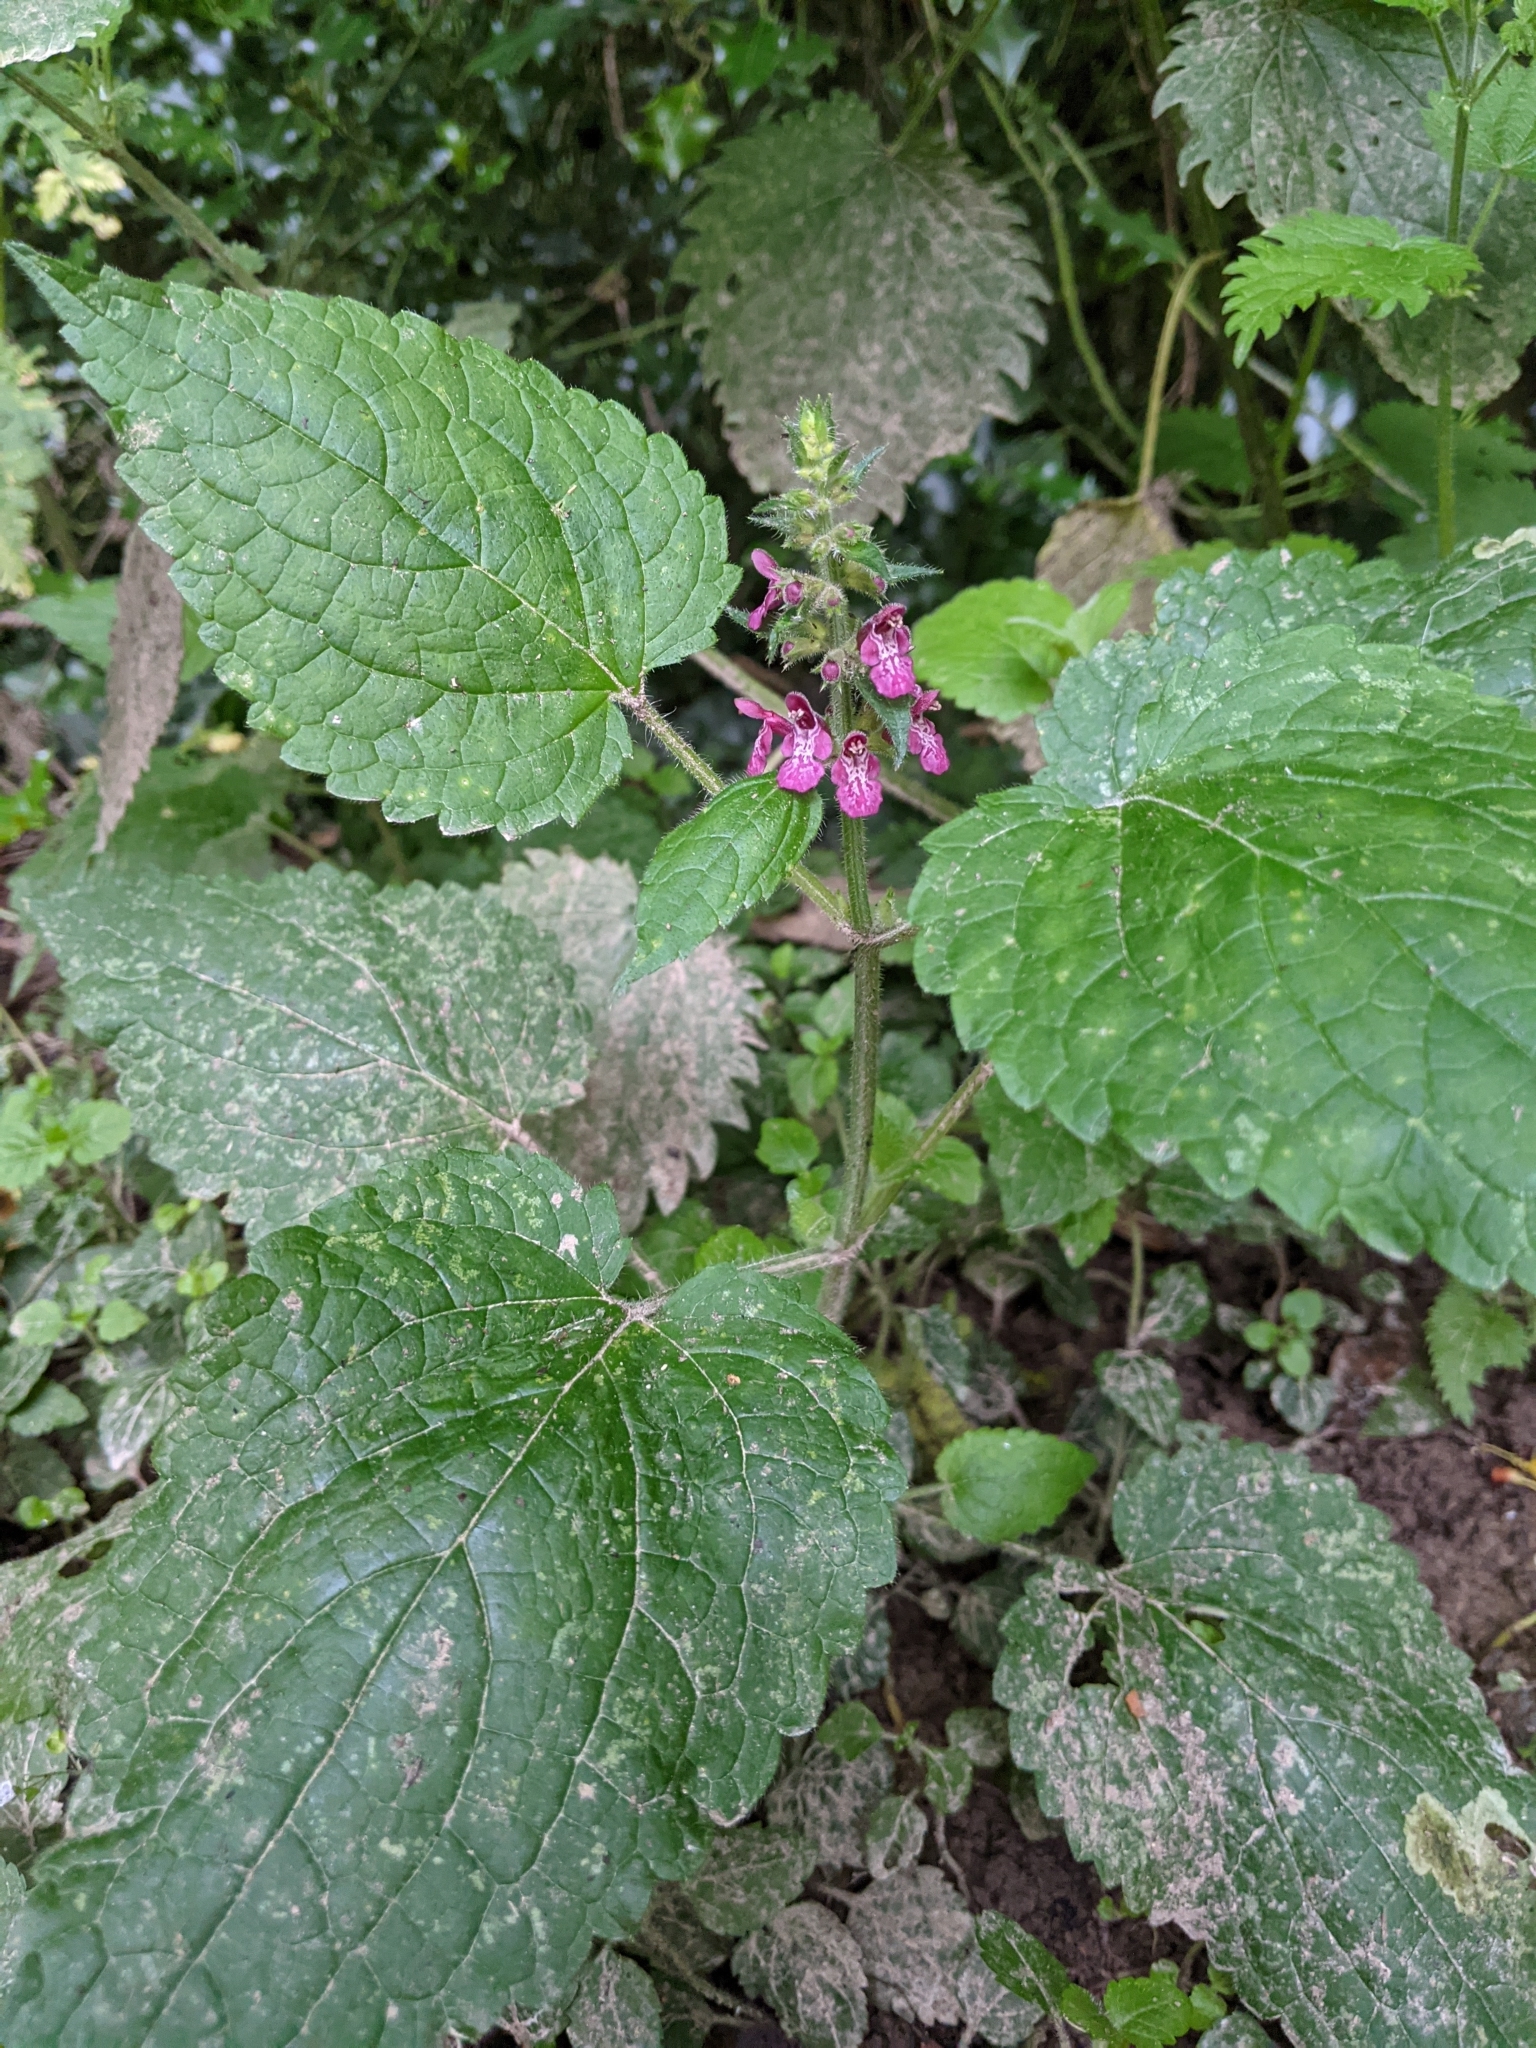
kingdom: Plantae
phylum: Tracheophyta
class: Magnoliopsida
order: Lamiales
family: Lamiaceae
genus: Stachys
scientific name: Stachys sylvatica
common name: Hedge woundwort
